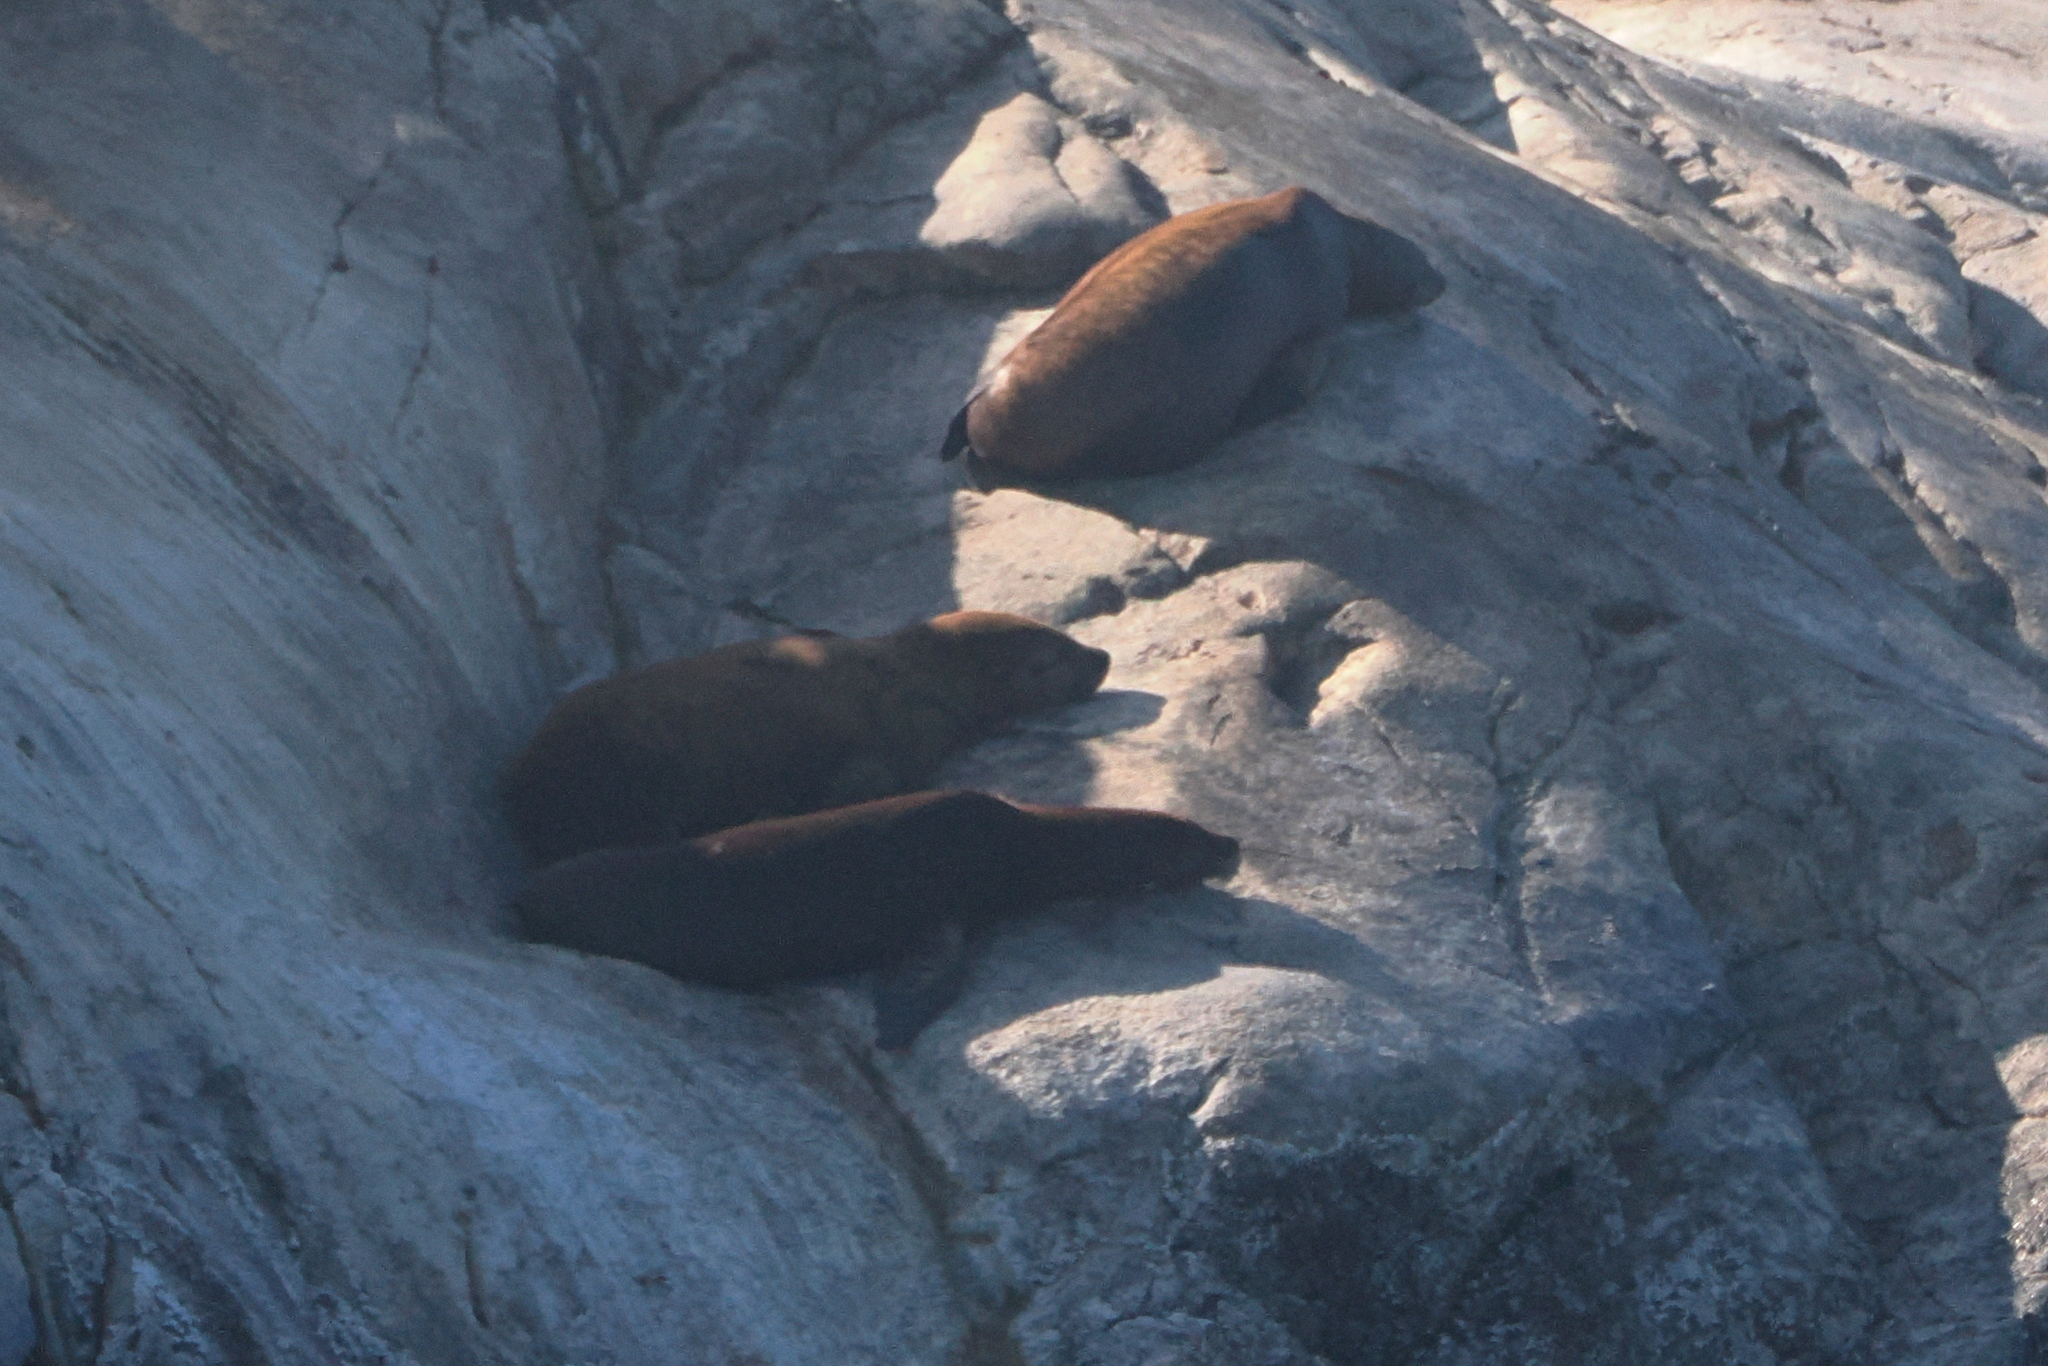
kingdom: Animalia
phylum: Chordata
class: Mammalia
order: Carnivora
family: Otariidae
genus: Zalophus
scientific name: Zalophus californianus
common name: California sea lion
